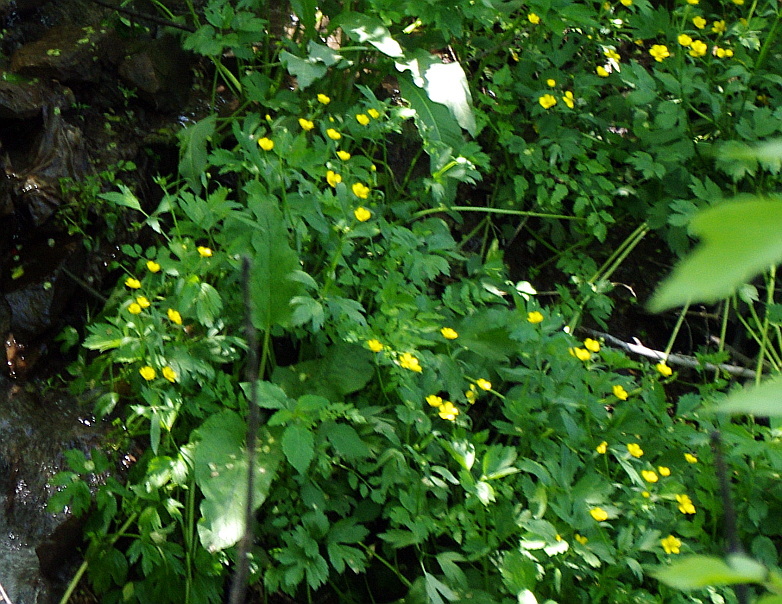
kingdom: Plantae
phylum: Tracheophyta
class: Magnoliopsida
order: Ranunculales
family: Ranunculaceae
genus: Ranunculus
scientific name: Ranunculus repens
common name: Creeping buttercup
